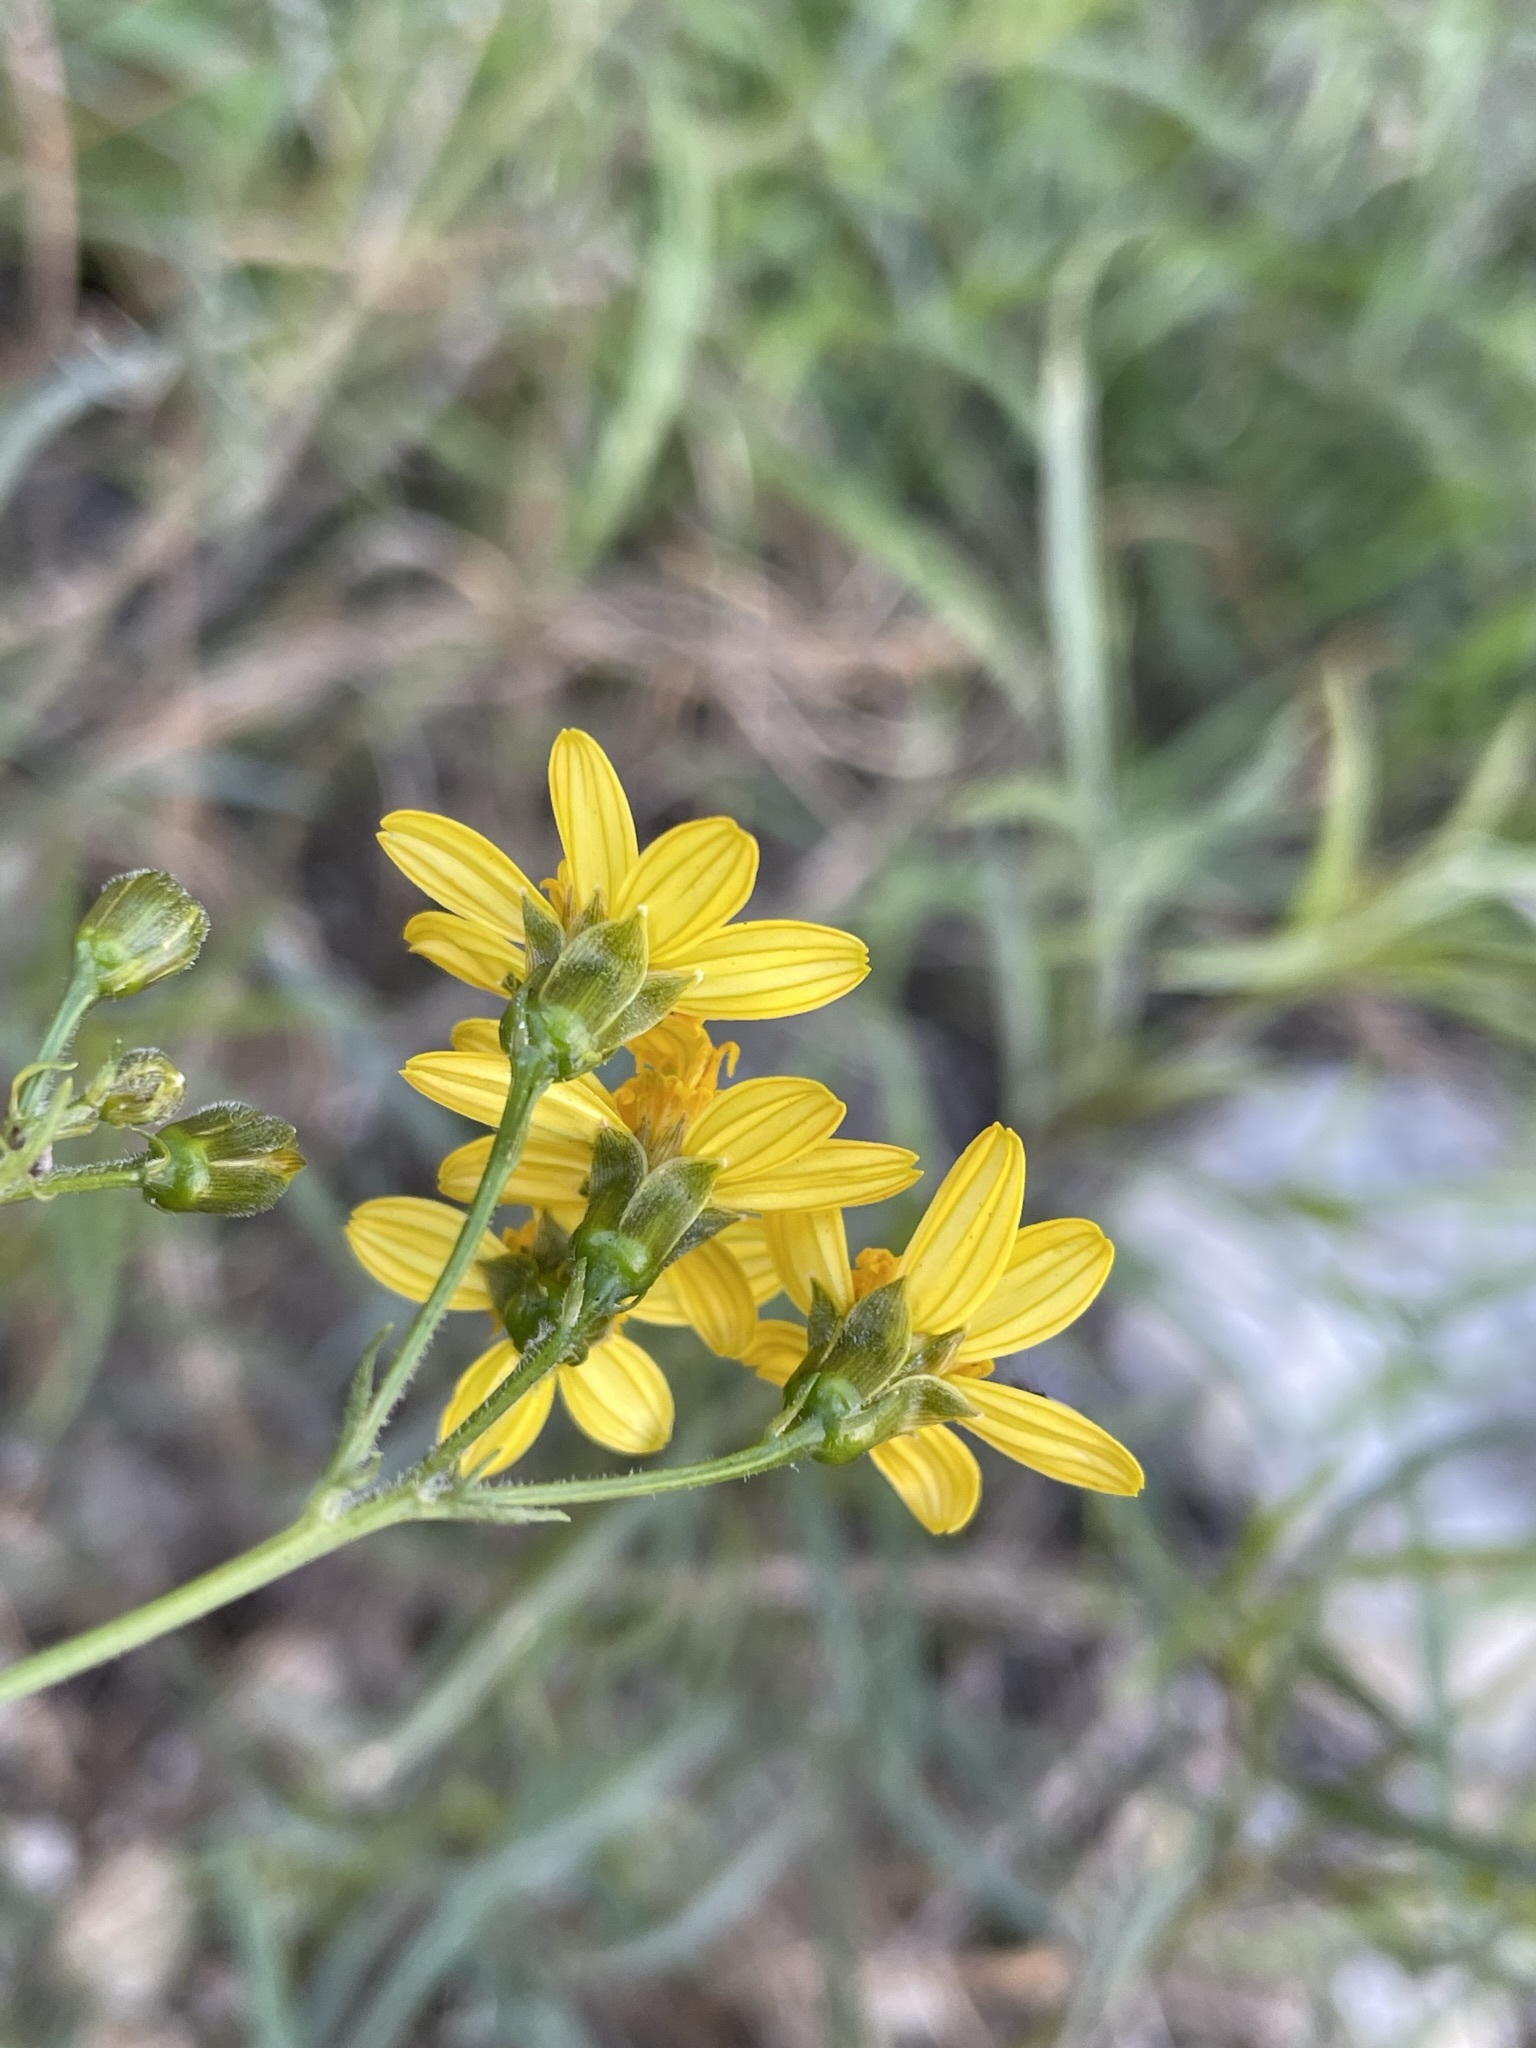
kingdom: Plantae
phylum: Tracheophyta
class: Magnoliopsida
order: Asterales
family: Asteraceae
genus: Coreocarpus
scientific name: Coreocarpus arizonicus
